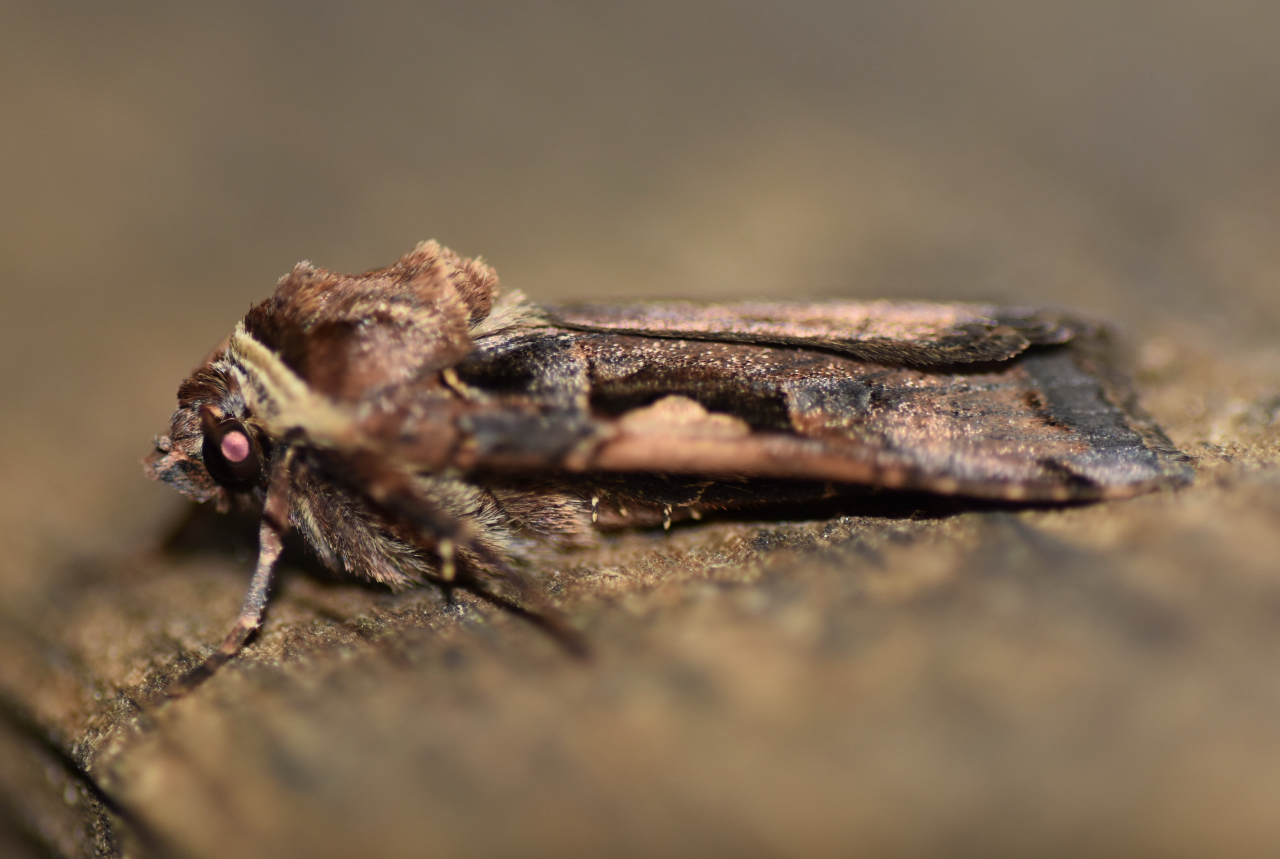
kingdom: Animalia
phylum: Arthropoda
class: Insecta
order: Lepidoptera
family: Noctuidae
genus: Xestia
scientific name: Xestia dolosa
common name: Cutworm moth
